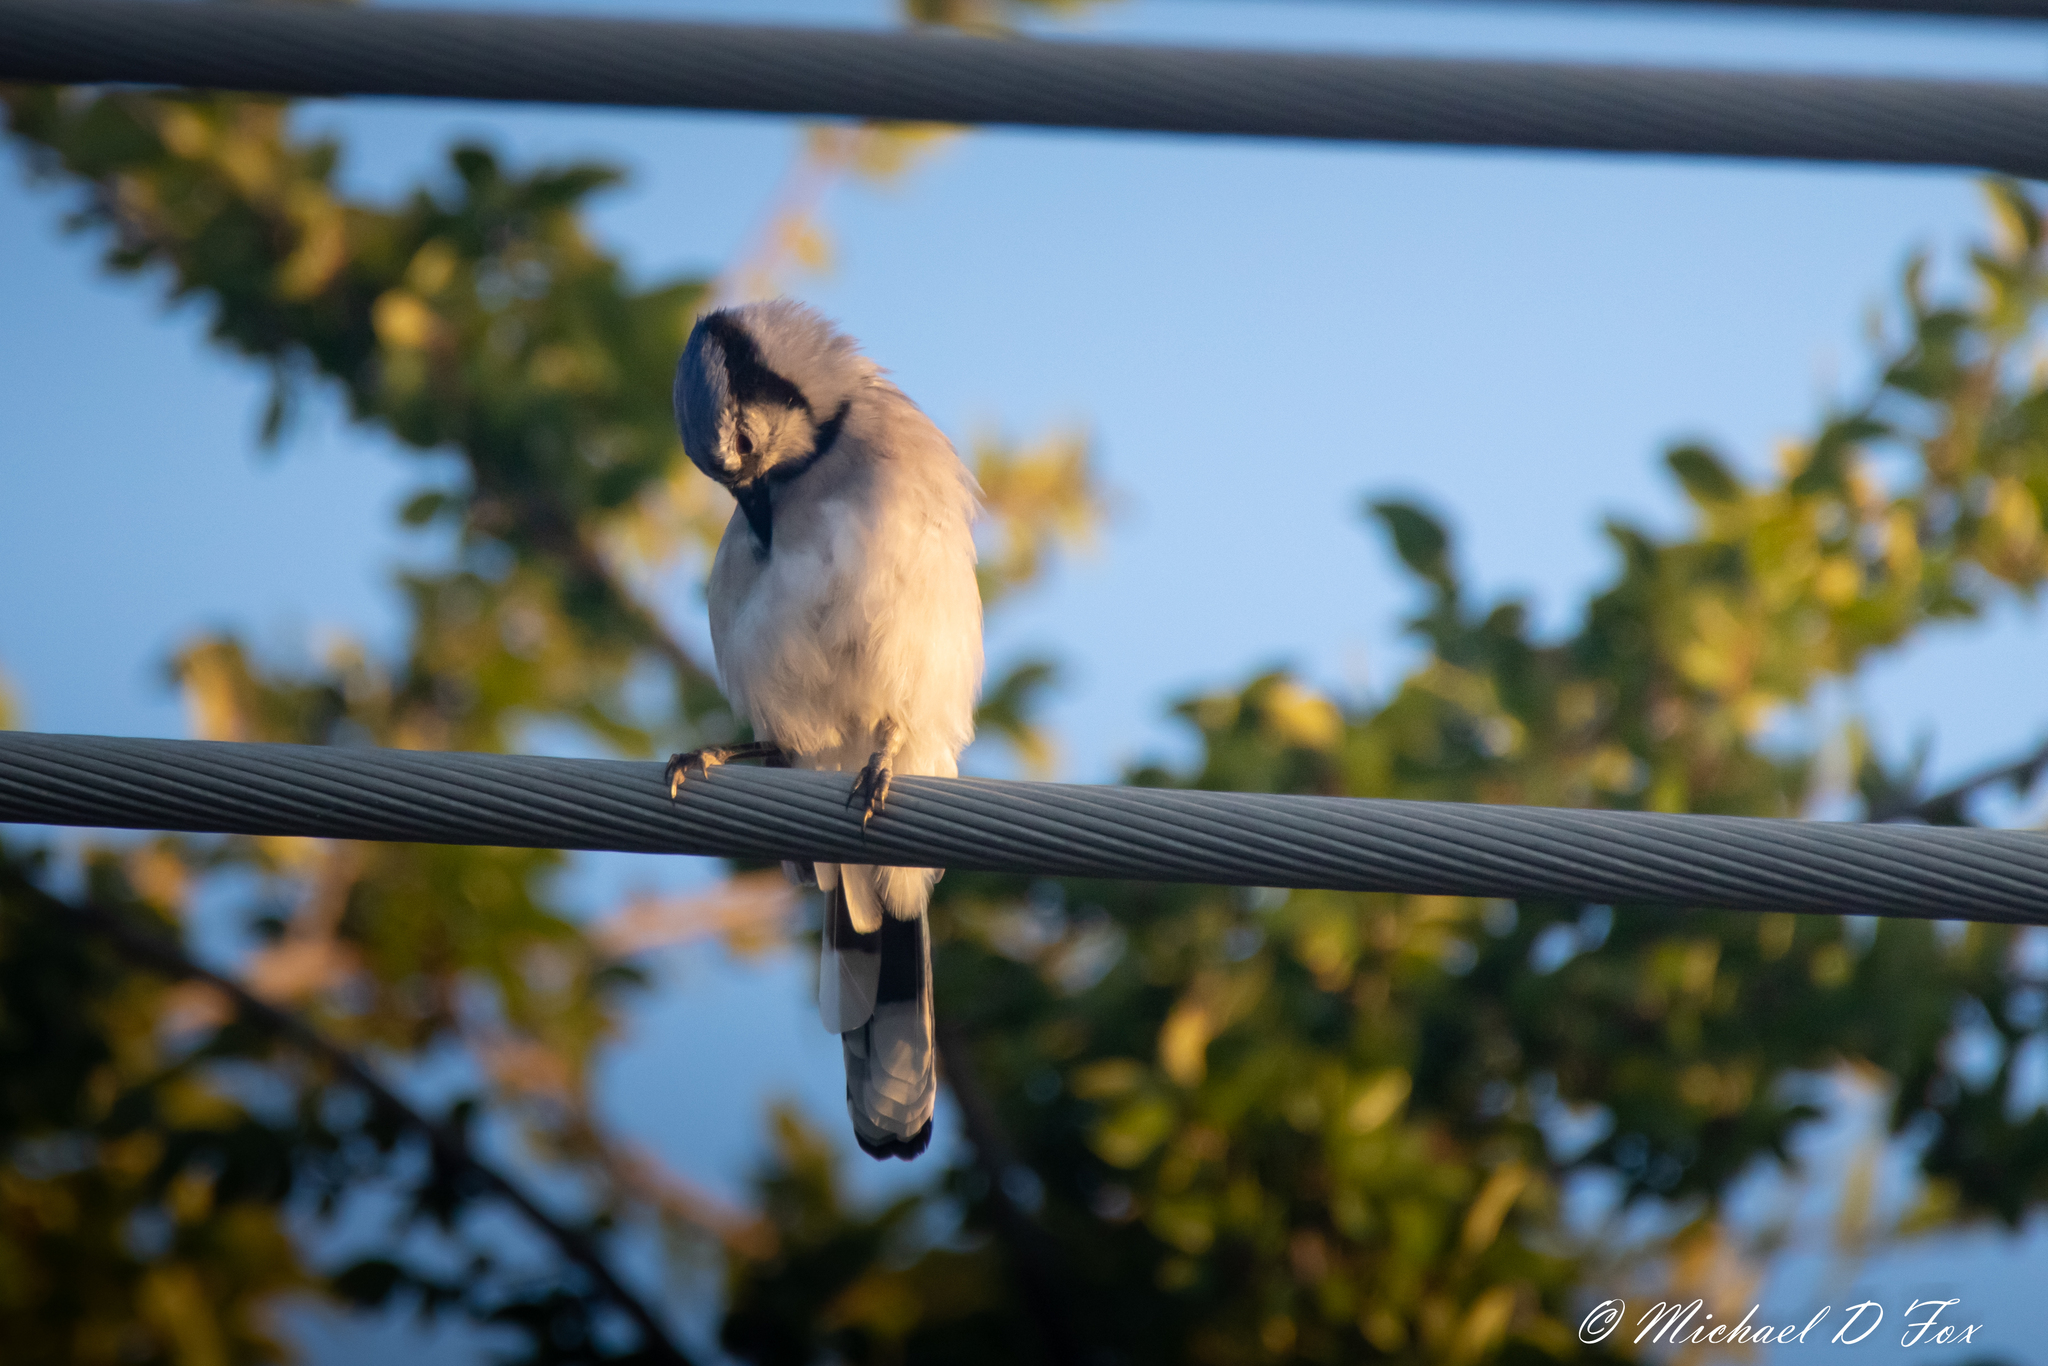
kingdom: Animalia
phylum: Chordata
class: Aves
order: Passeriformes
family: Corvidae
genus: Cyanocitta
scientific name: Cyanocitta cristata
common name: Blue jay
